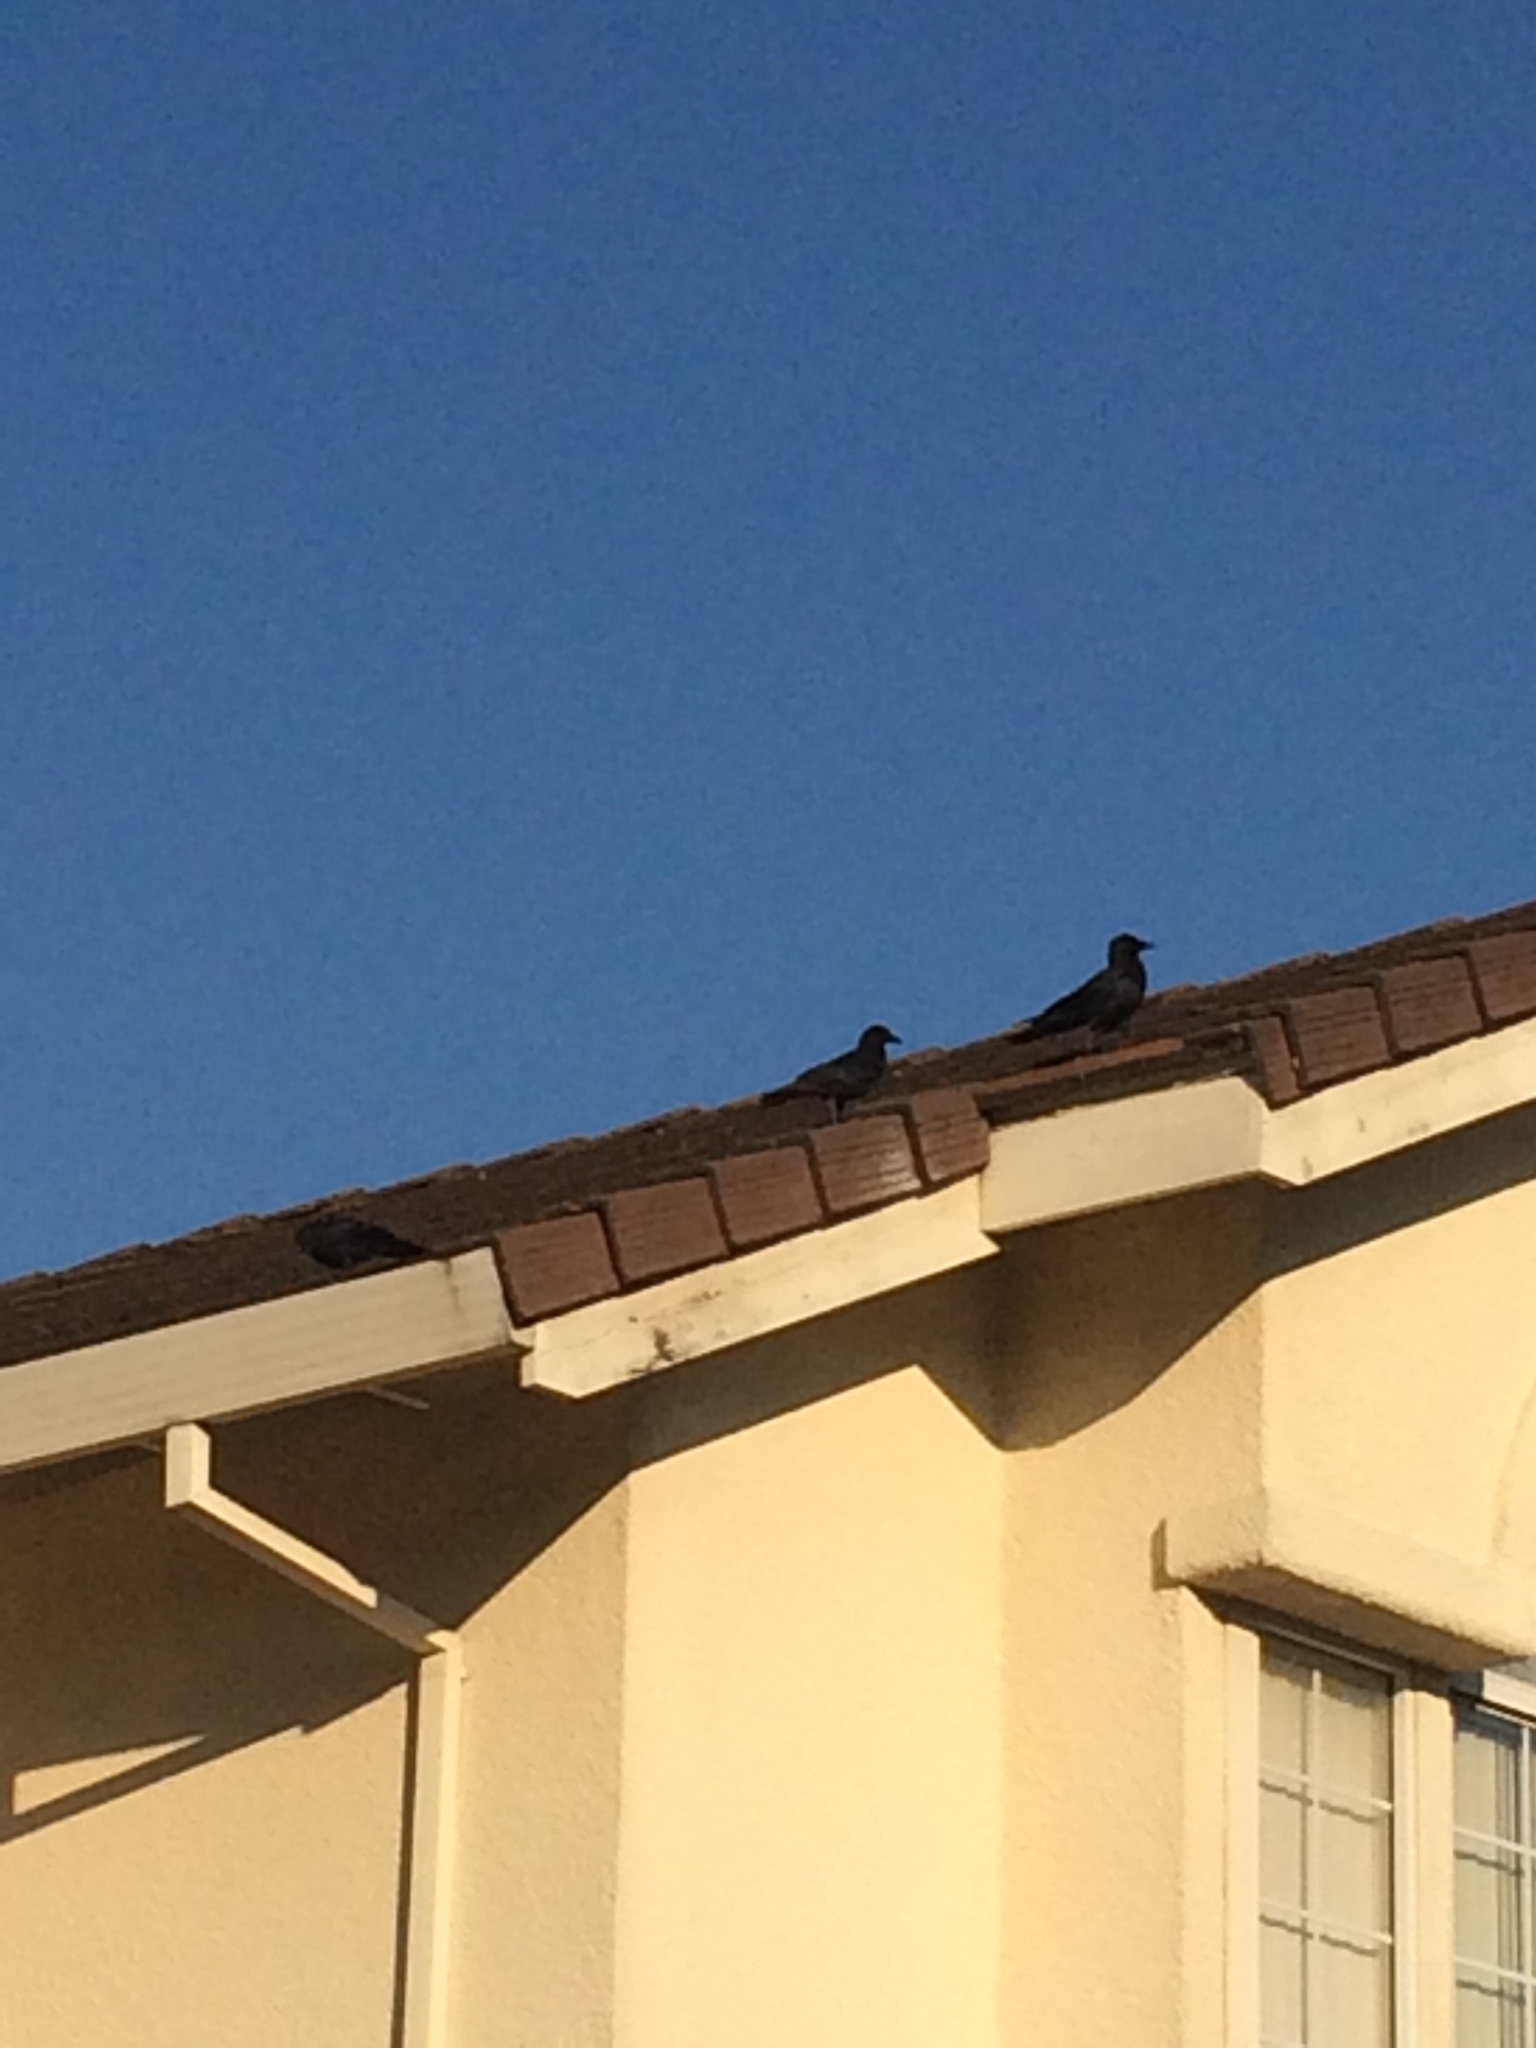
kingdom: Animalia
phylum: Chordata
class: Aves
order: Passeriformes
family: Corvidae
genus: Corvus
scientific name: Corvus brachyrhynchos
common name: American crow
